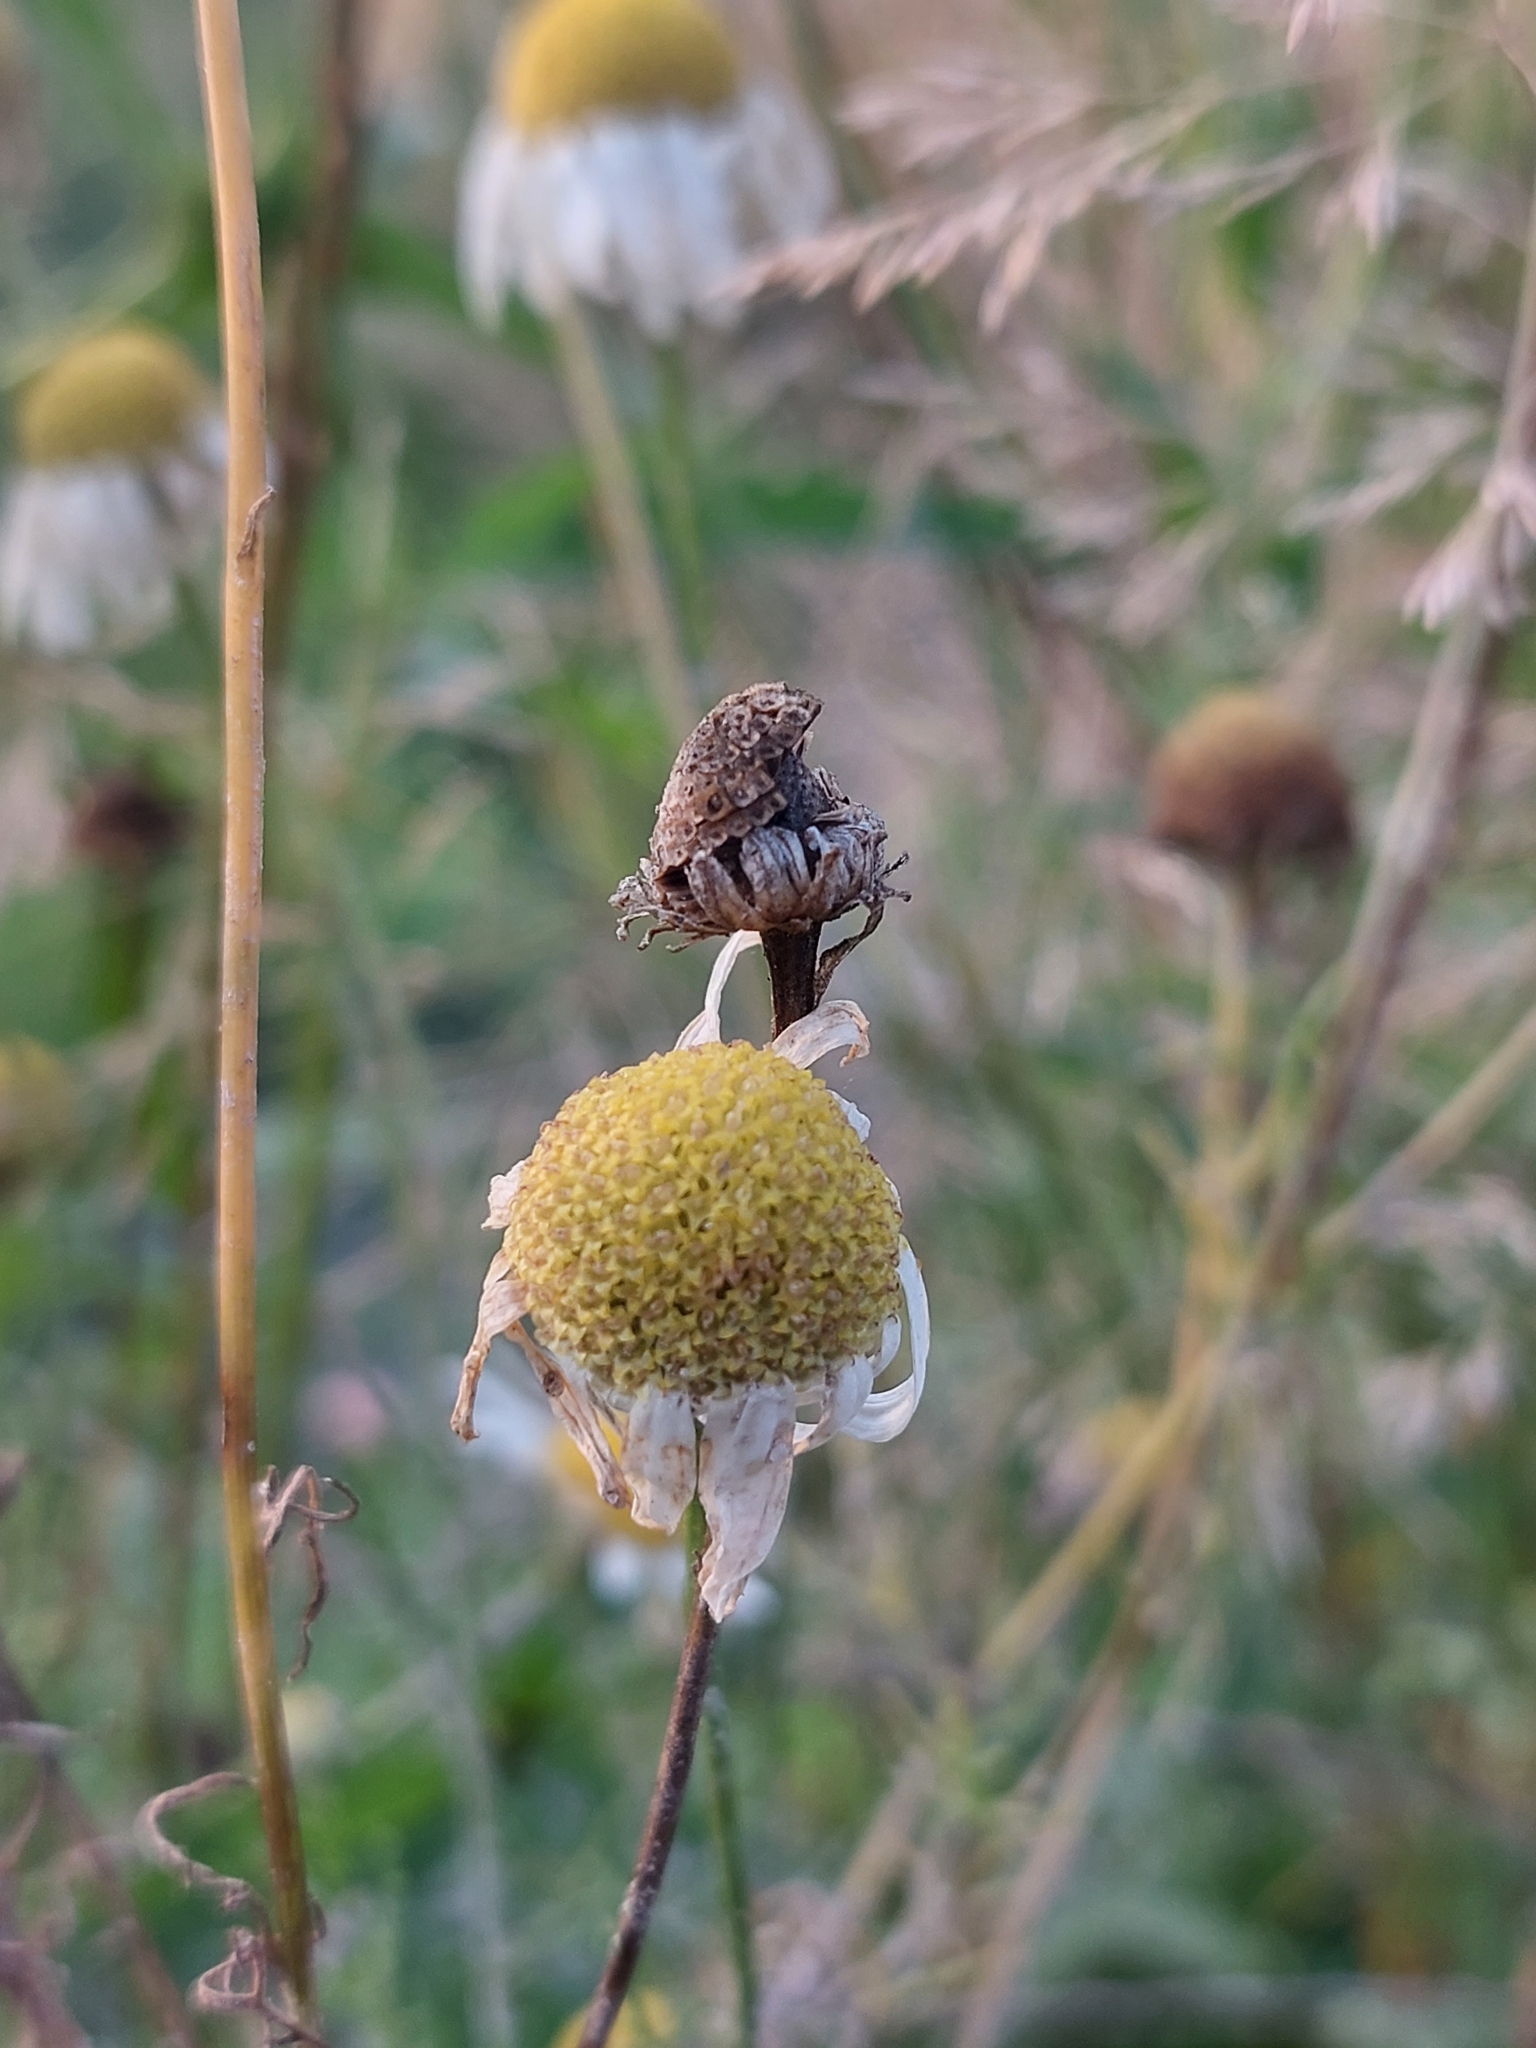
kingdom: Plantae
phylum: Tracheophyta
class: Magnoliopsida
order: Asterales
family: Asteraceae
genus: Tripleurospermum
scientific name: Tripleurospermum inodorum
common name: Scentless mayweed
